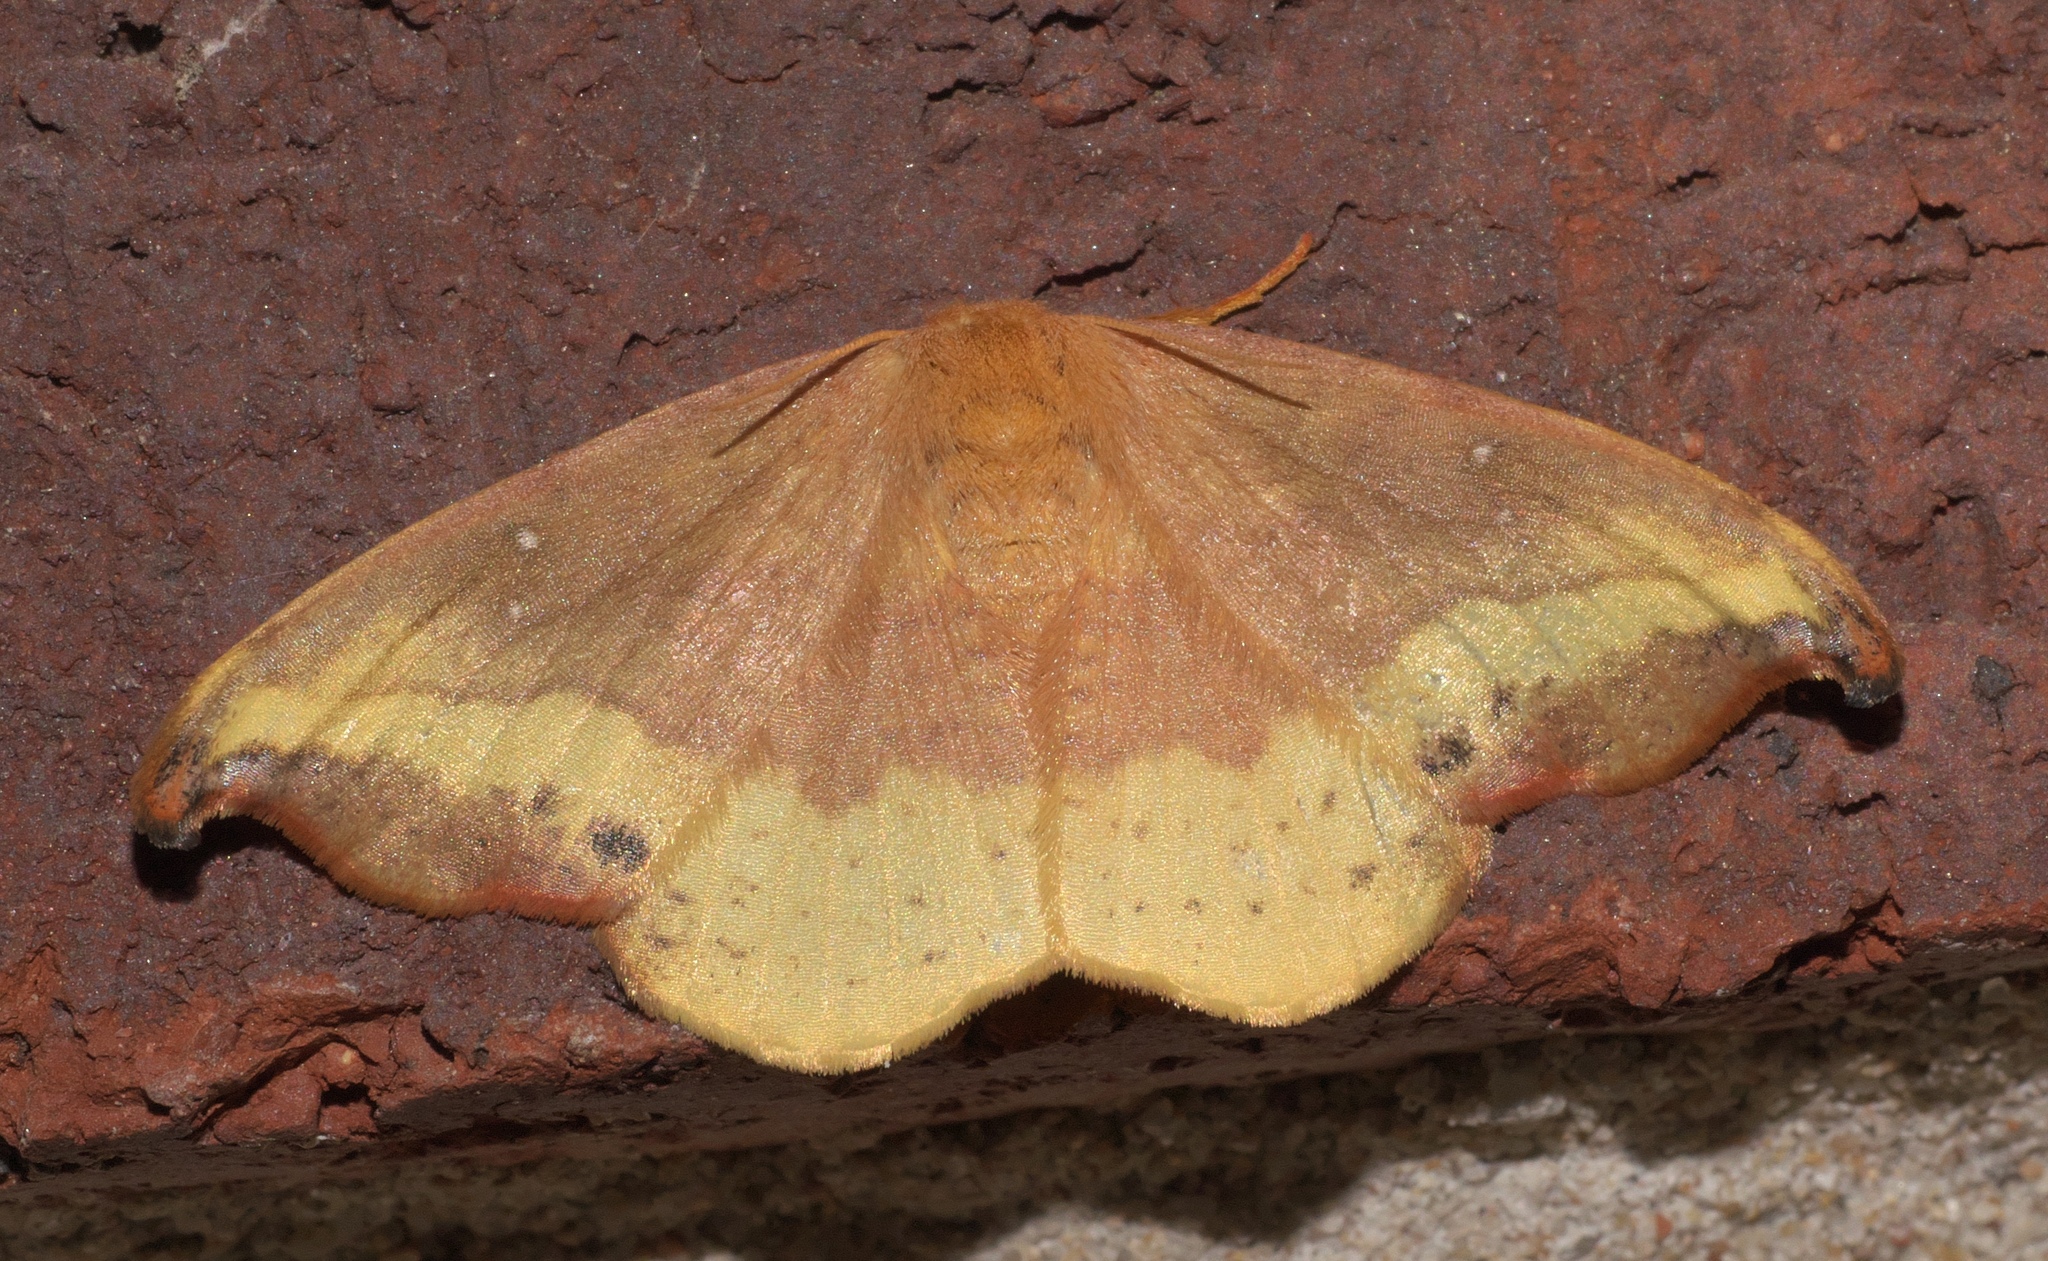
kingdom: Animalia
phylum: Arthropoda
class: Insecta
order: Lepidoptera
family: Drepanidae
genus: Oreta
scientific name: Oreta rosea
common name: Rose hooktip
